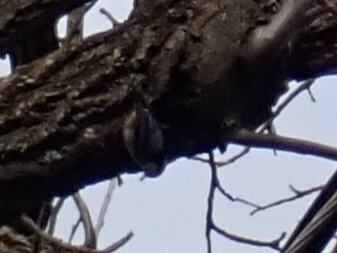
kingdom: Animalia
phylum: Chordata
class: Aves
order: Passeriformes
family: Sittidae
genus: Sitta
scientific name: Sitta carolinensis
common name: White-breasted nuthatch
